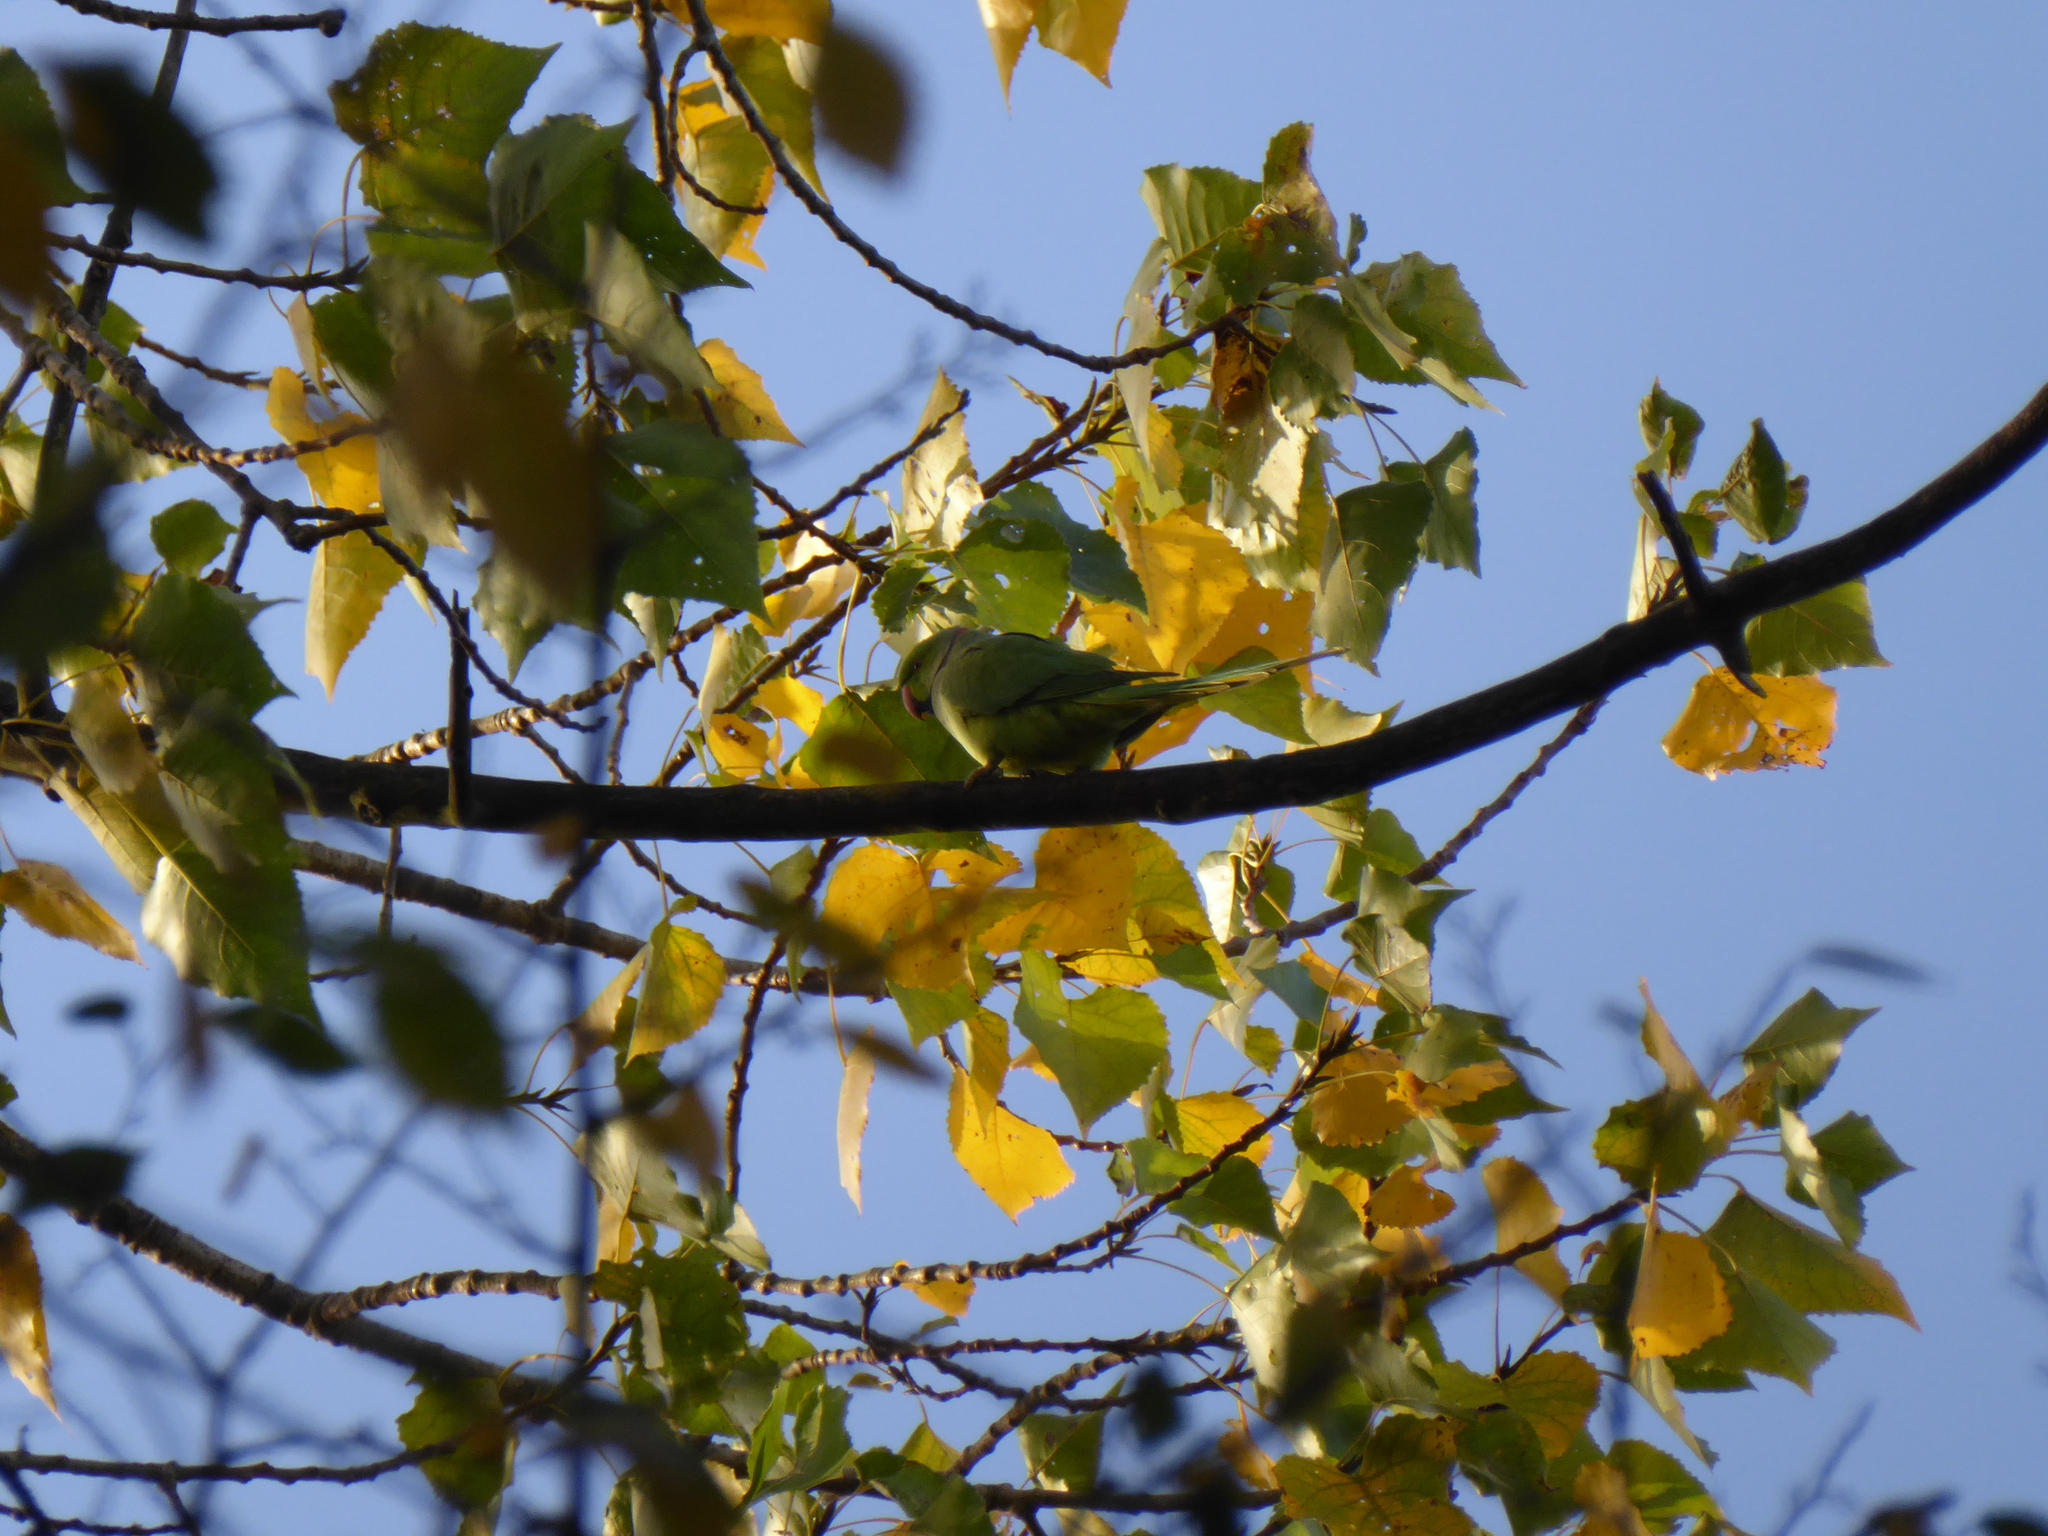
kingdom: Animalia
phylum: Chordata
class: Aves
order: Psittaciformes
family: Psittacidae
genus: Psittacula
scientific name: Psittacula krameri
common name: Rose-ringed parakeet
